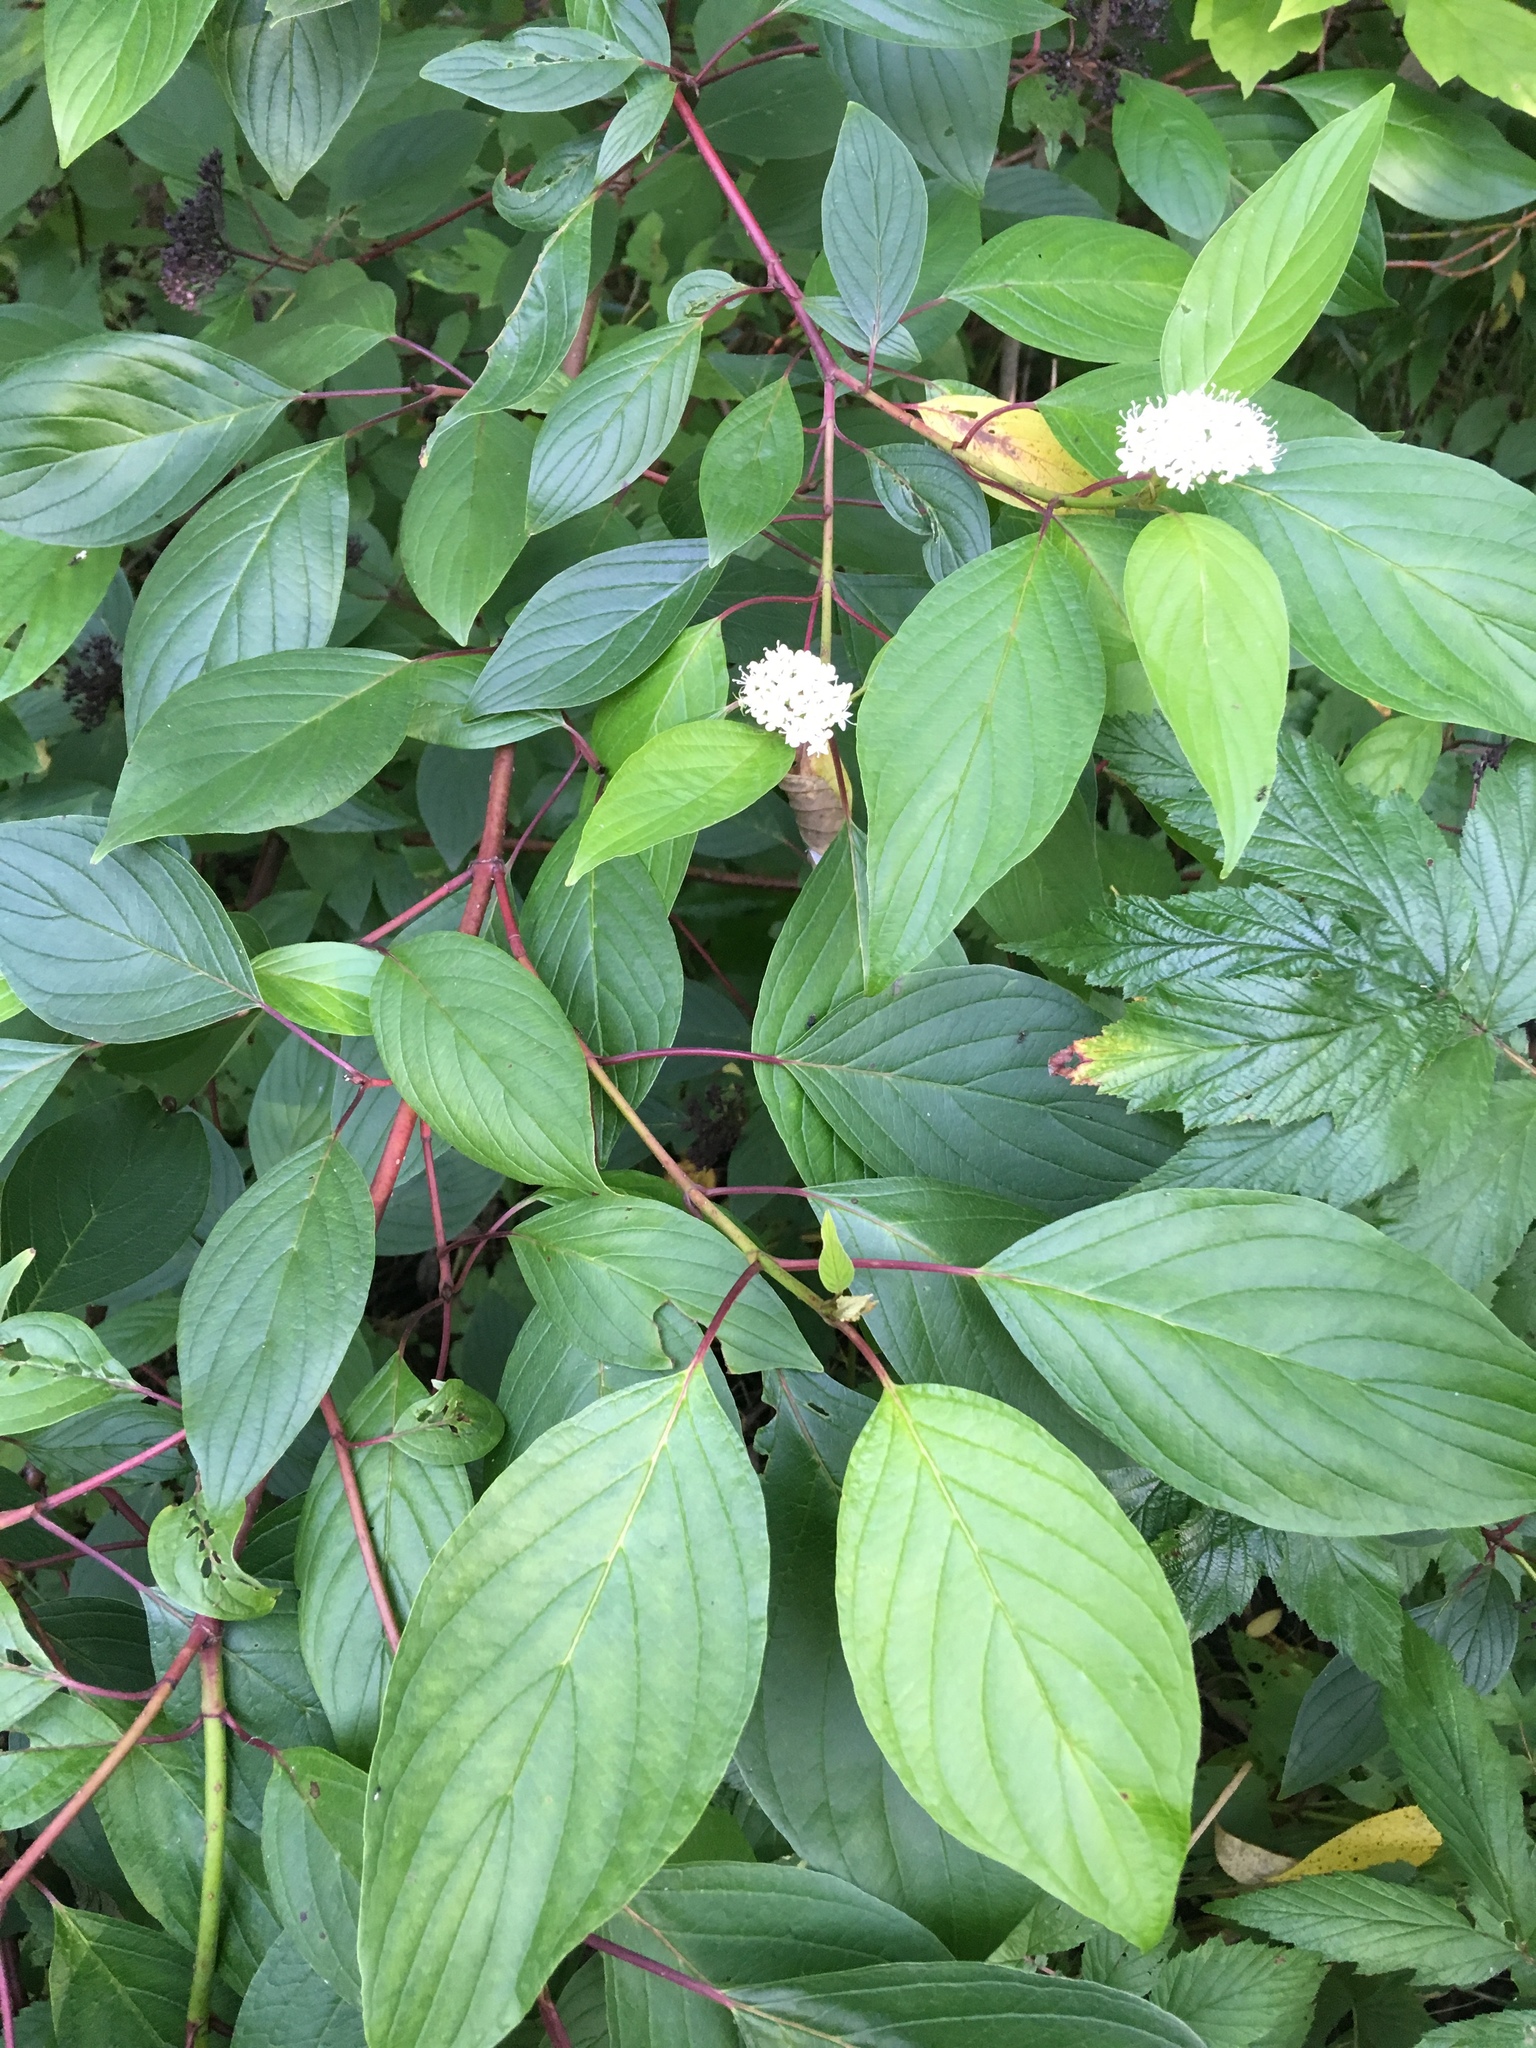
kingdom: Plantae
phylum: Tracheophyta
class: Magnoliopsida
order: Cornales
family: Cornaceae
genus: Cornus
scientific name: Cornus sanguinea
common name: Dogwood
